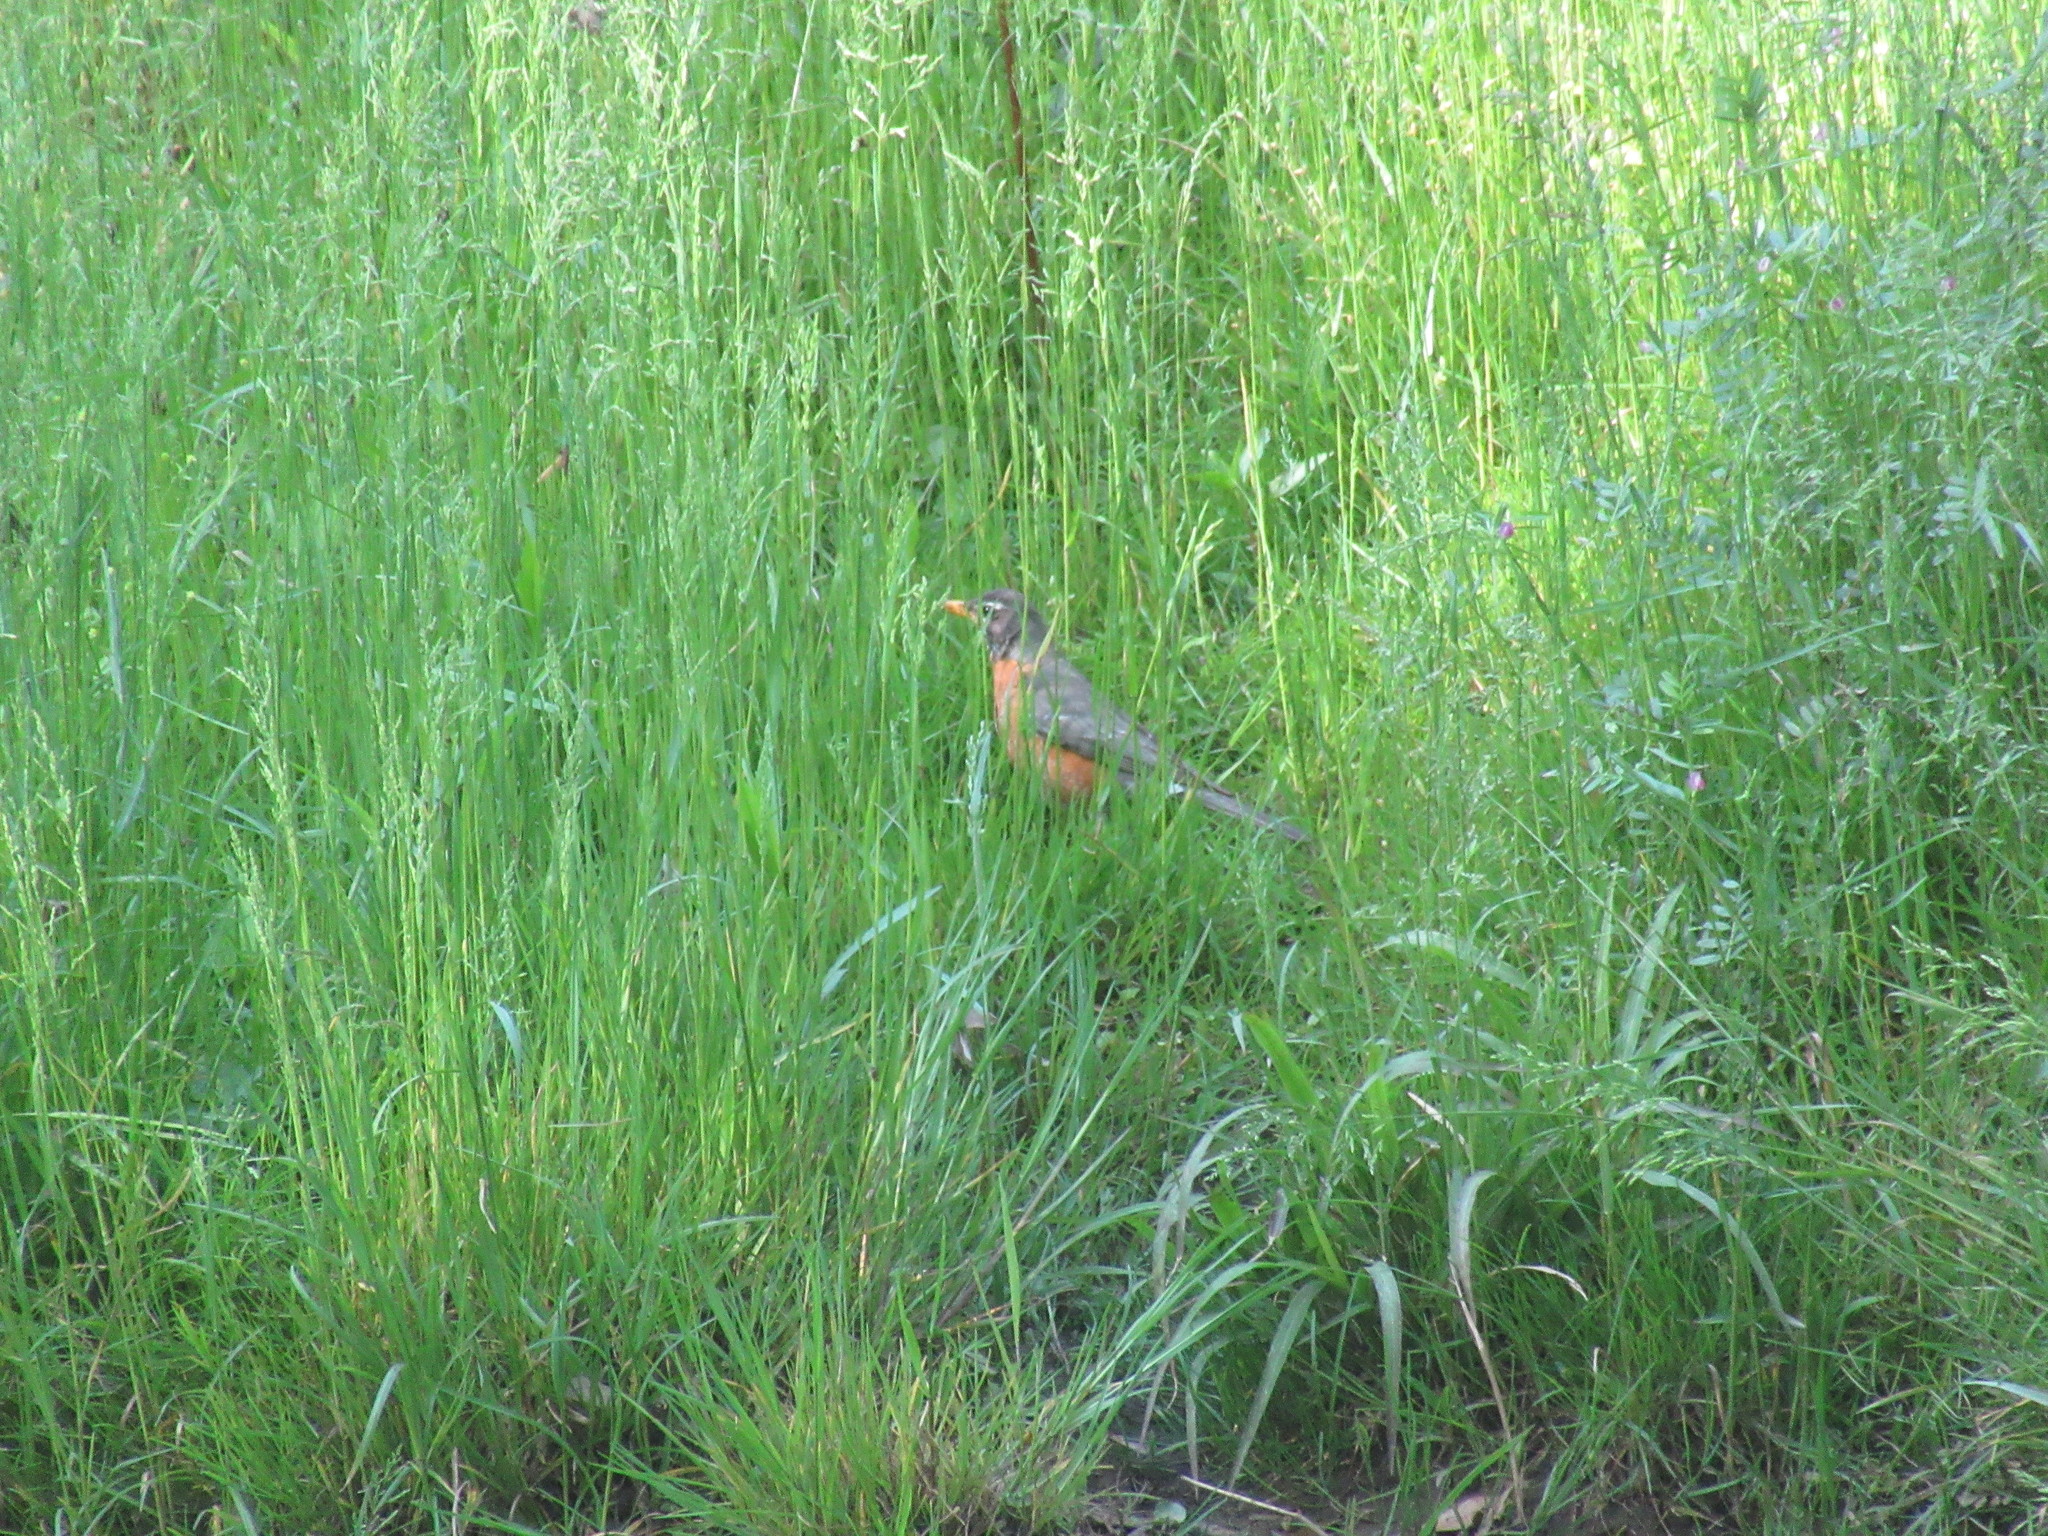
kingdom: Animalia
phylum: Chordata
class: Aves
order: Passeriformes
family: Turdidae
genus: Turdus
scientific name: Turdus migratorius
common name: American robin
